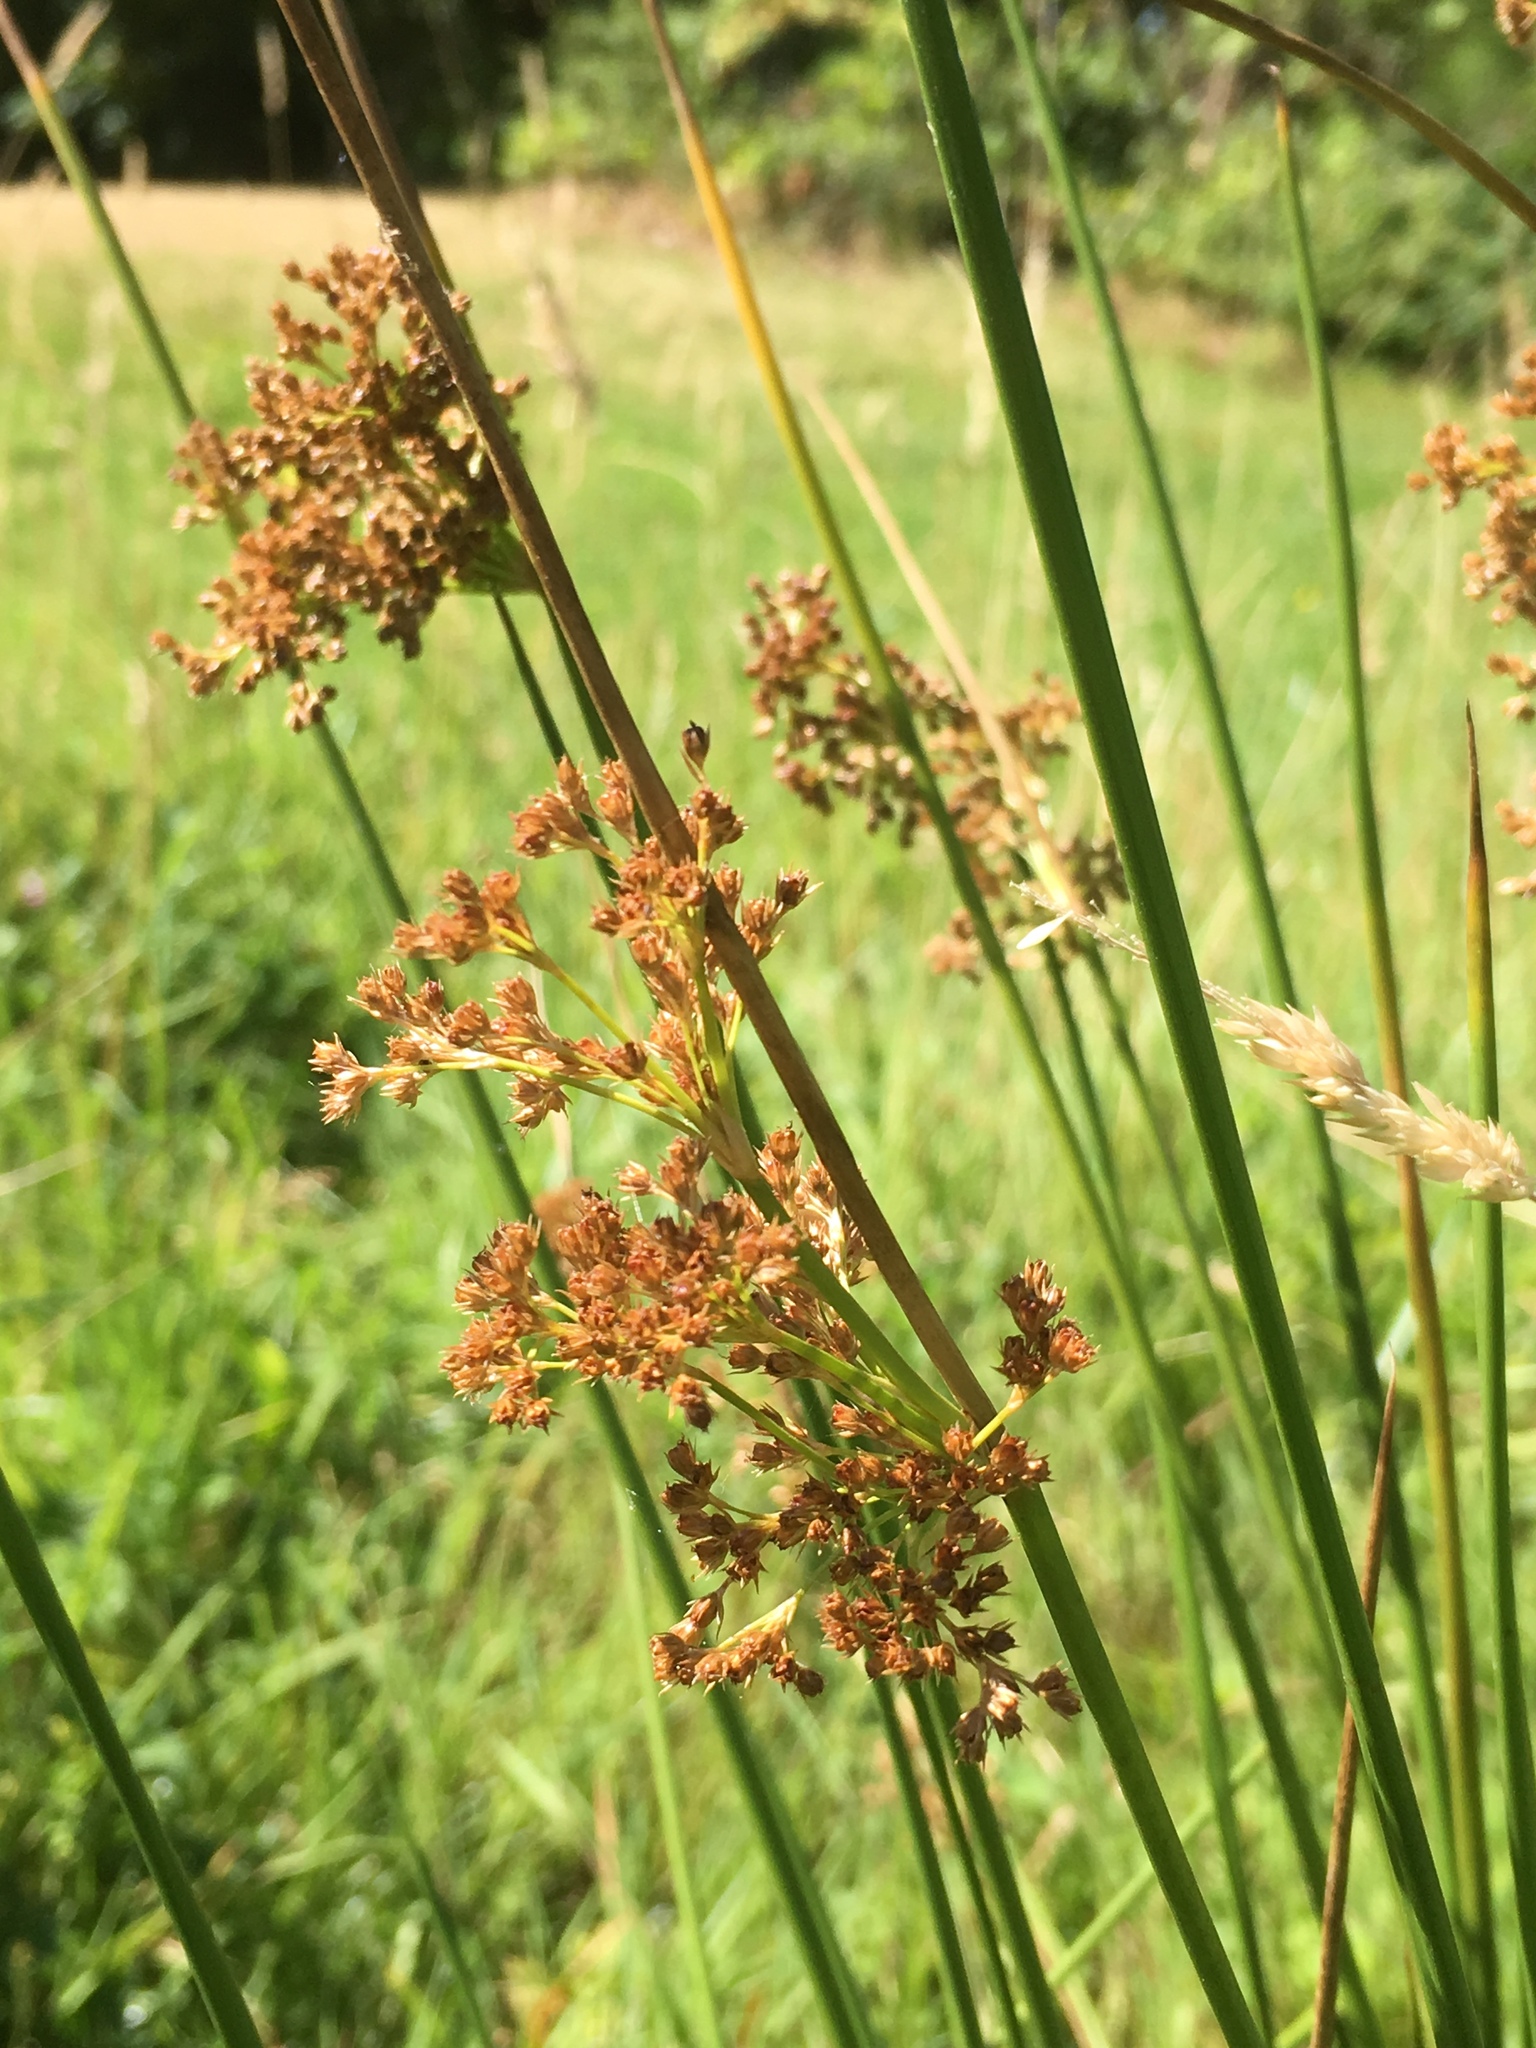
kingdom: Plantae
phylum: Tracheophyta
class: Liliopsida
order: Poales
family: Juncaceae
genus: Juncus
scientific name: Juncus effusus
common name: Soft rush
